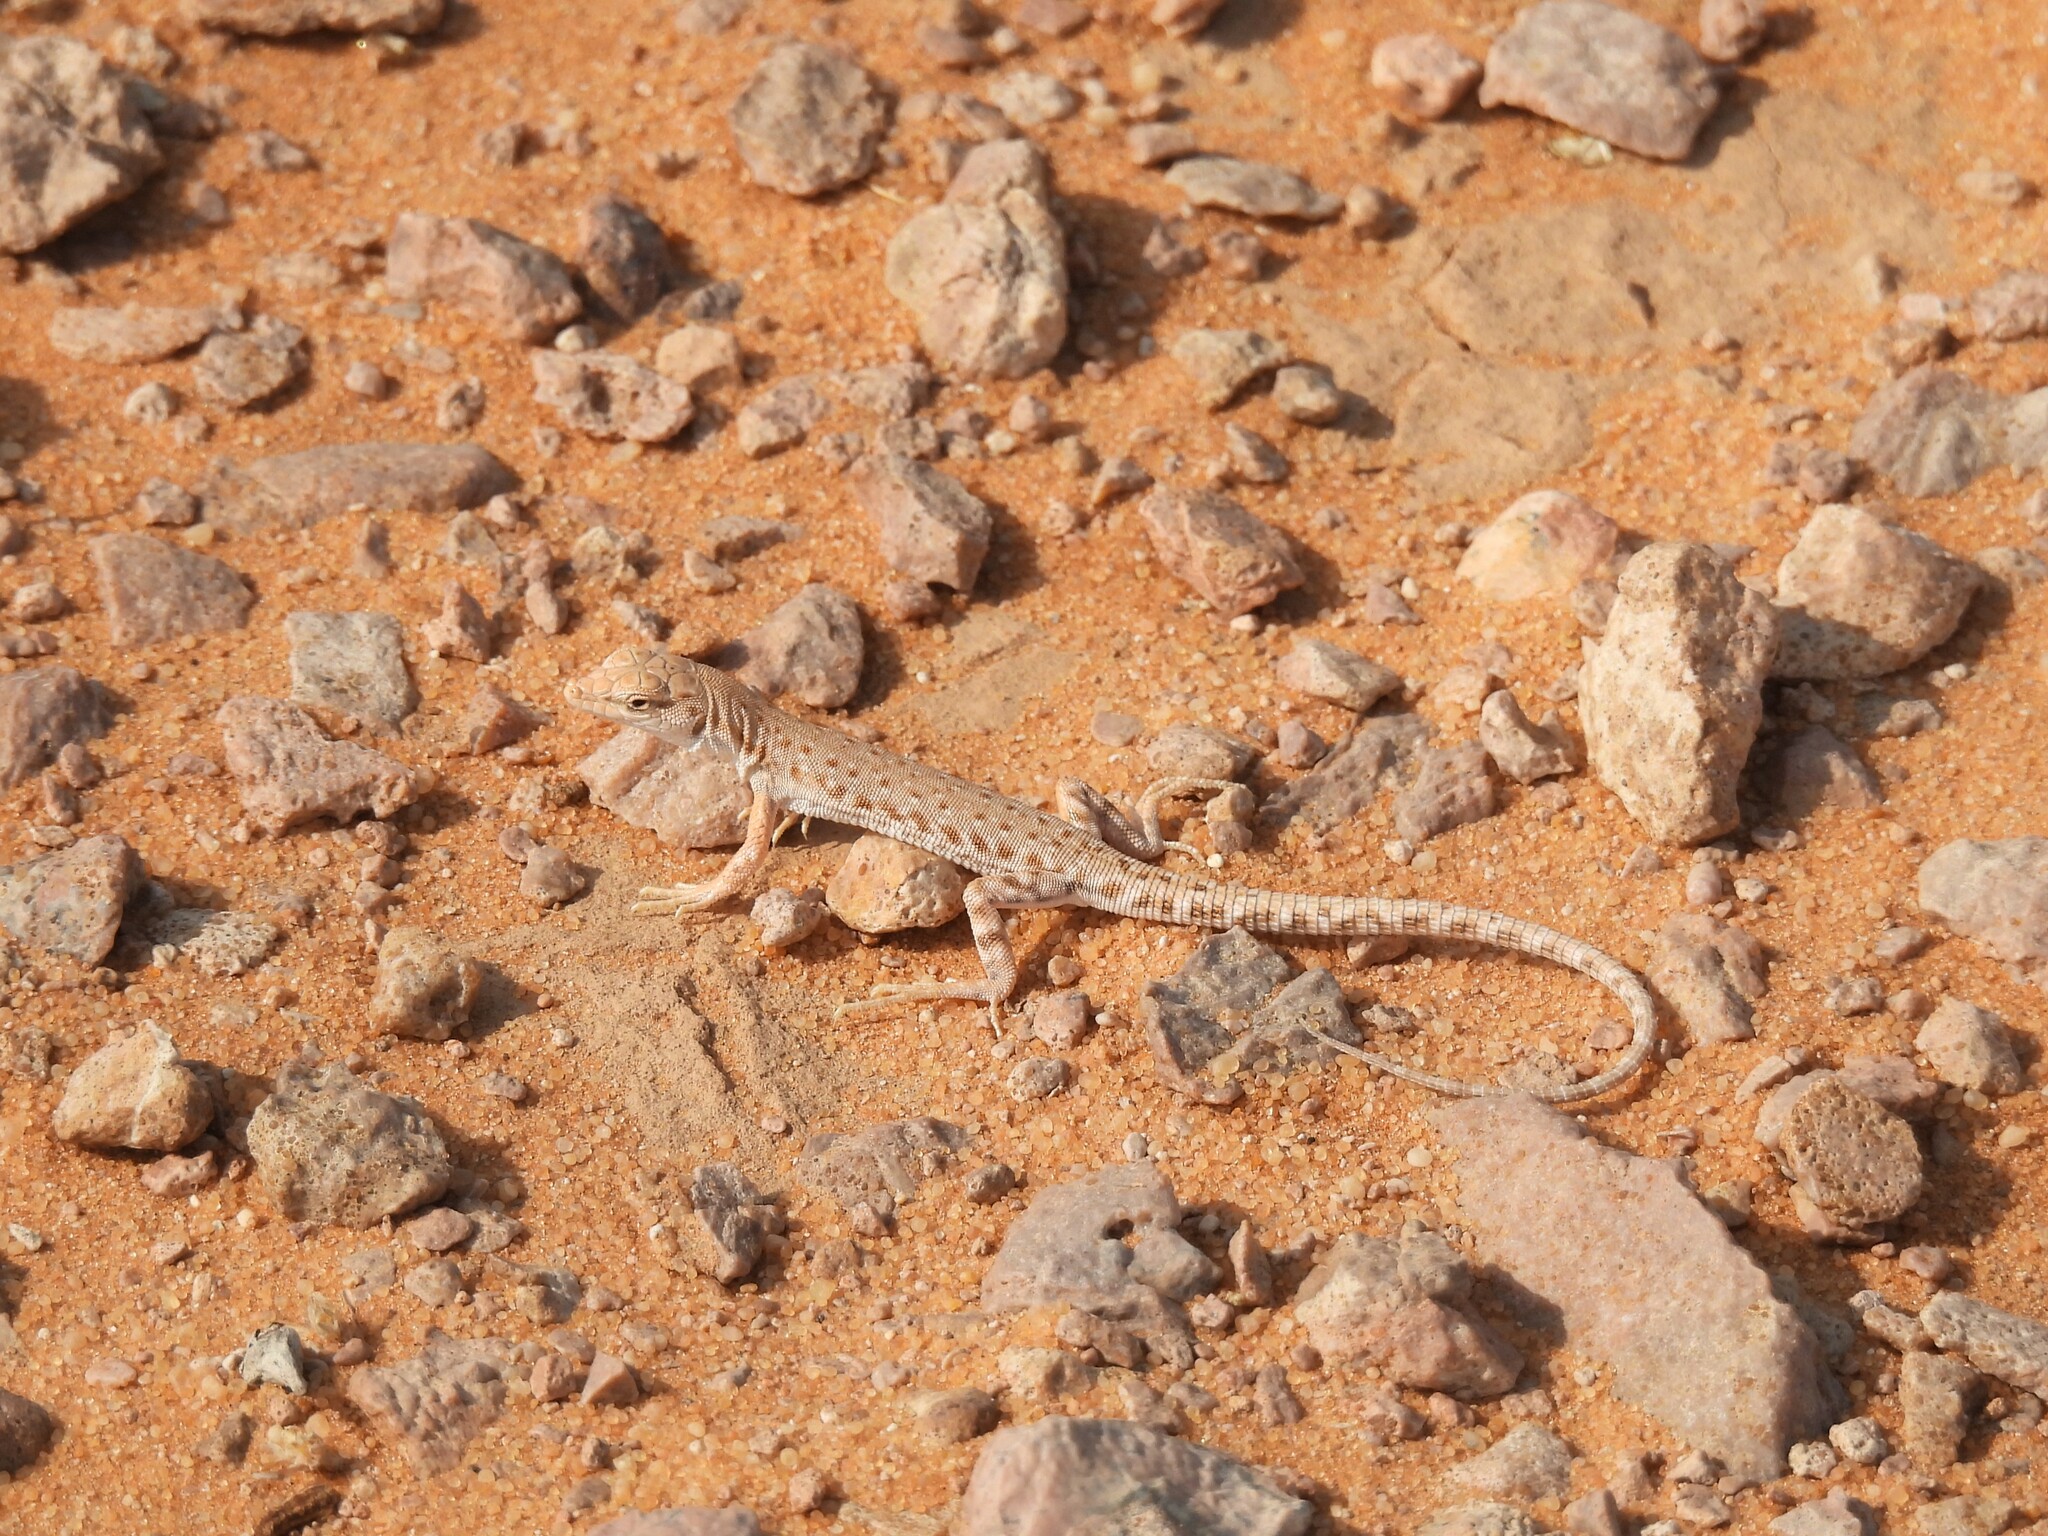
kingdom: Animalia
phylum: Chordata
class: Squamata
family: Lacertidae
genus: Mesalina
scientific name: Mesalina brevirostris
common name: Blanford's short-nosed desert lizard
